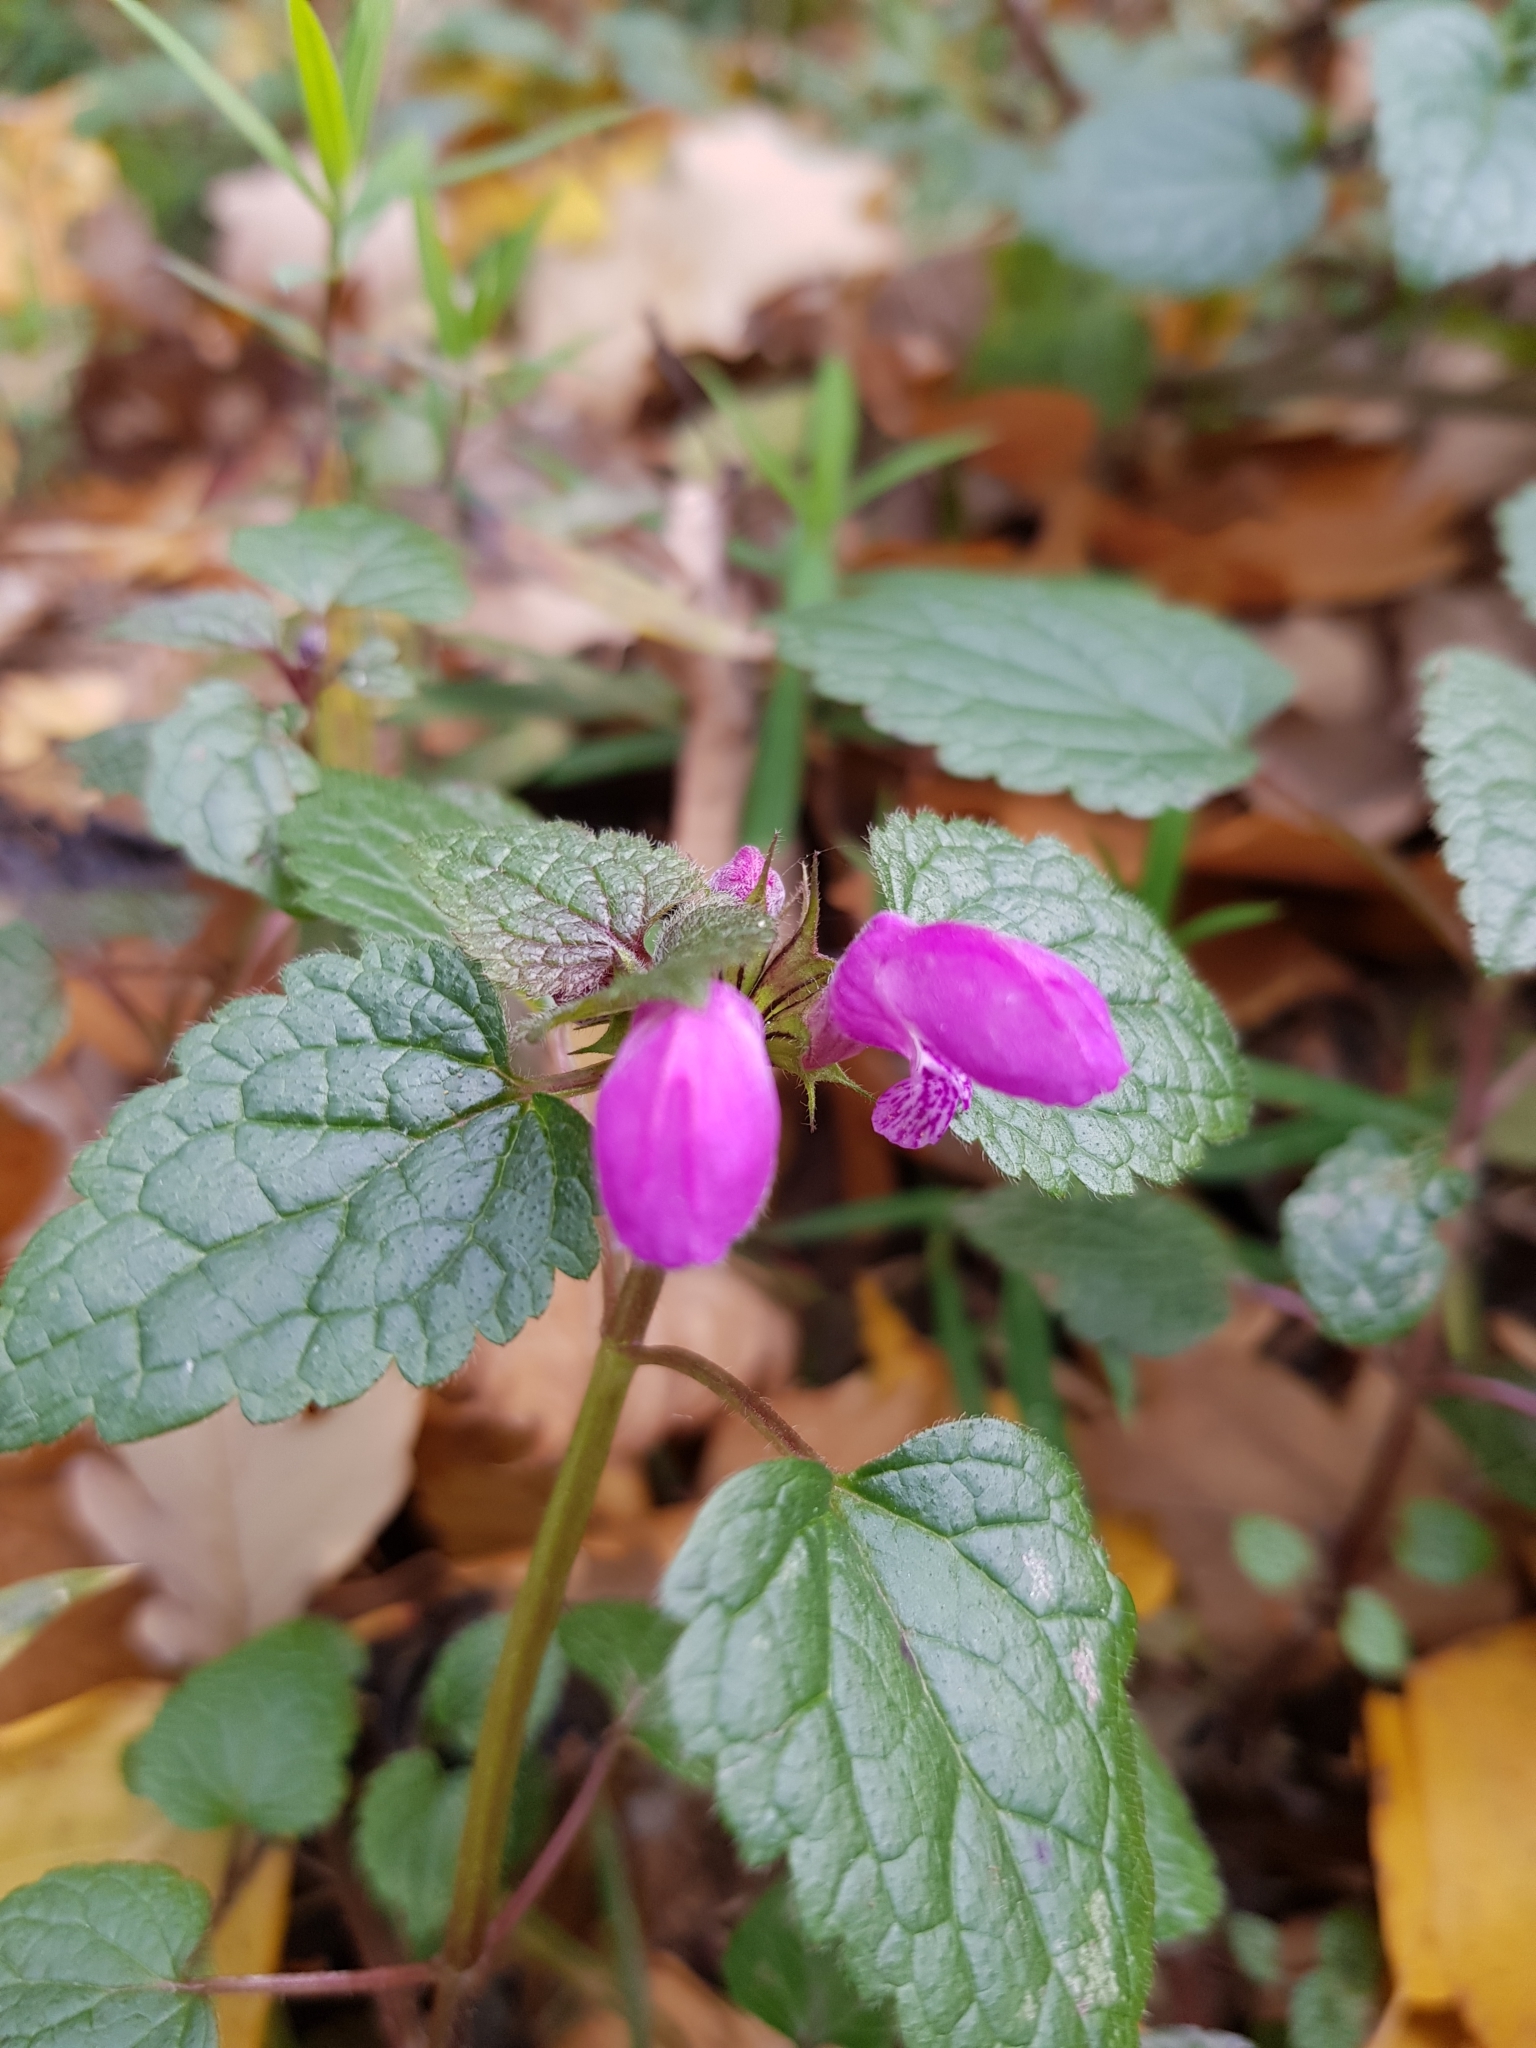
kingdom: Plantae
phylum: Tracheophyta
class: Magnoliopsida
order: Lamiales
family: Lamiaceae
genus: Lamium
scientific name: Lamium maculatum
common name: Spotted dead-nettle
